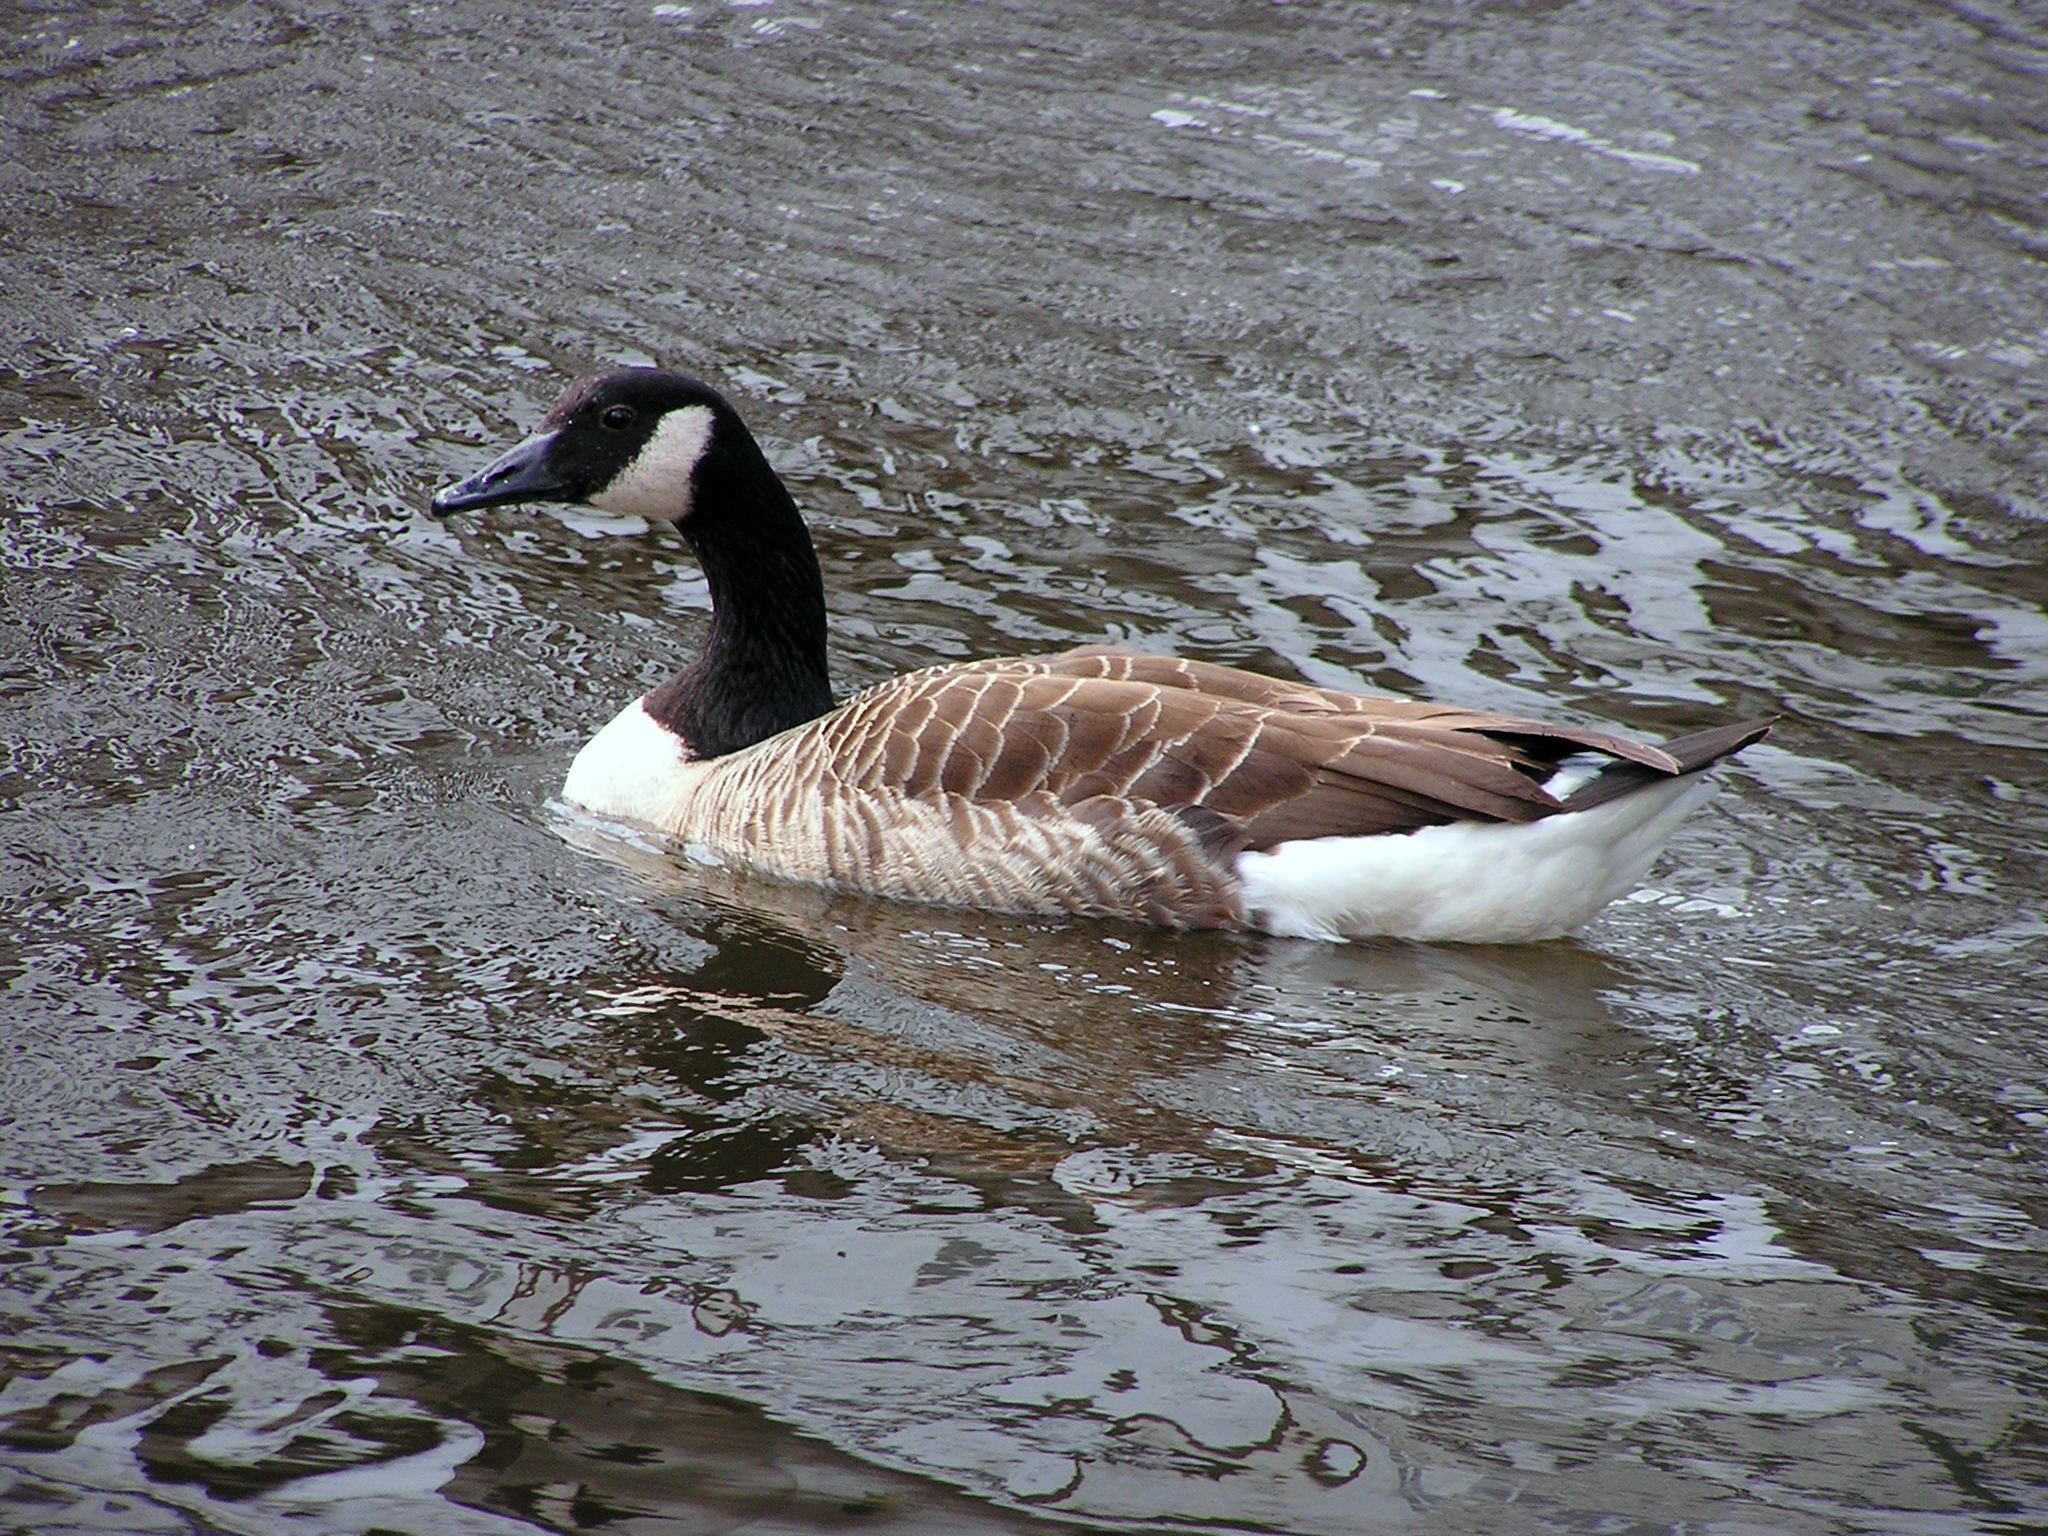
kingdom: Animalia
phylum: Chordata
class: Aves
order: Anseriformes
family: Anatidae
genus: Branta
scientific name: Branta canadensis
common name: Canada goose
